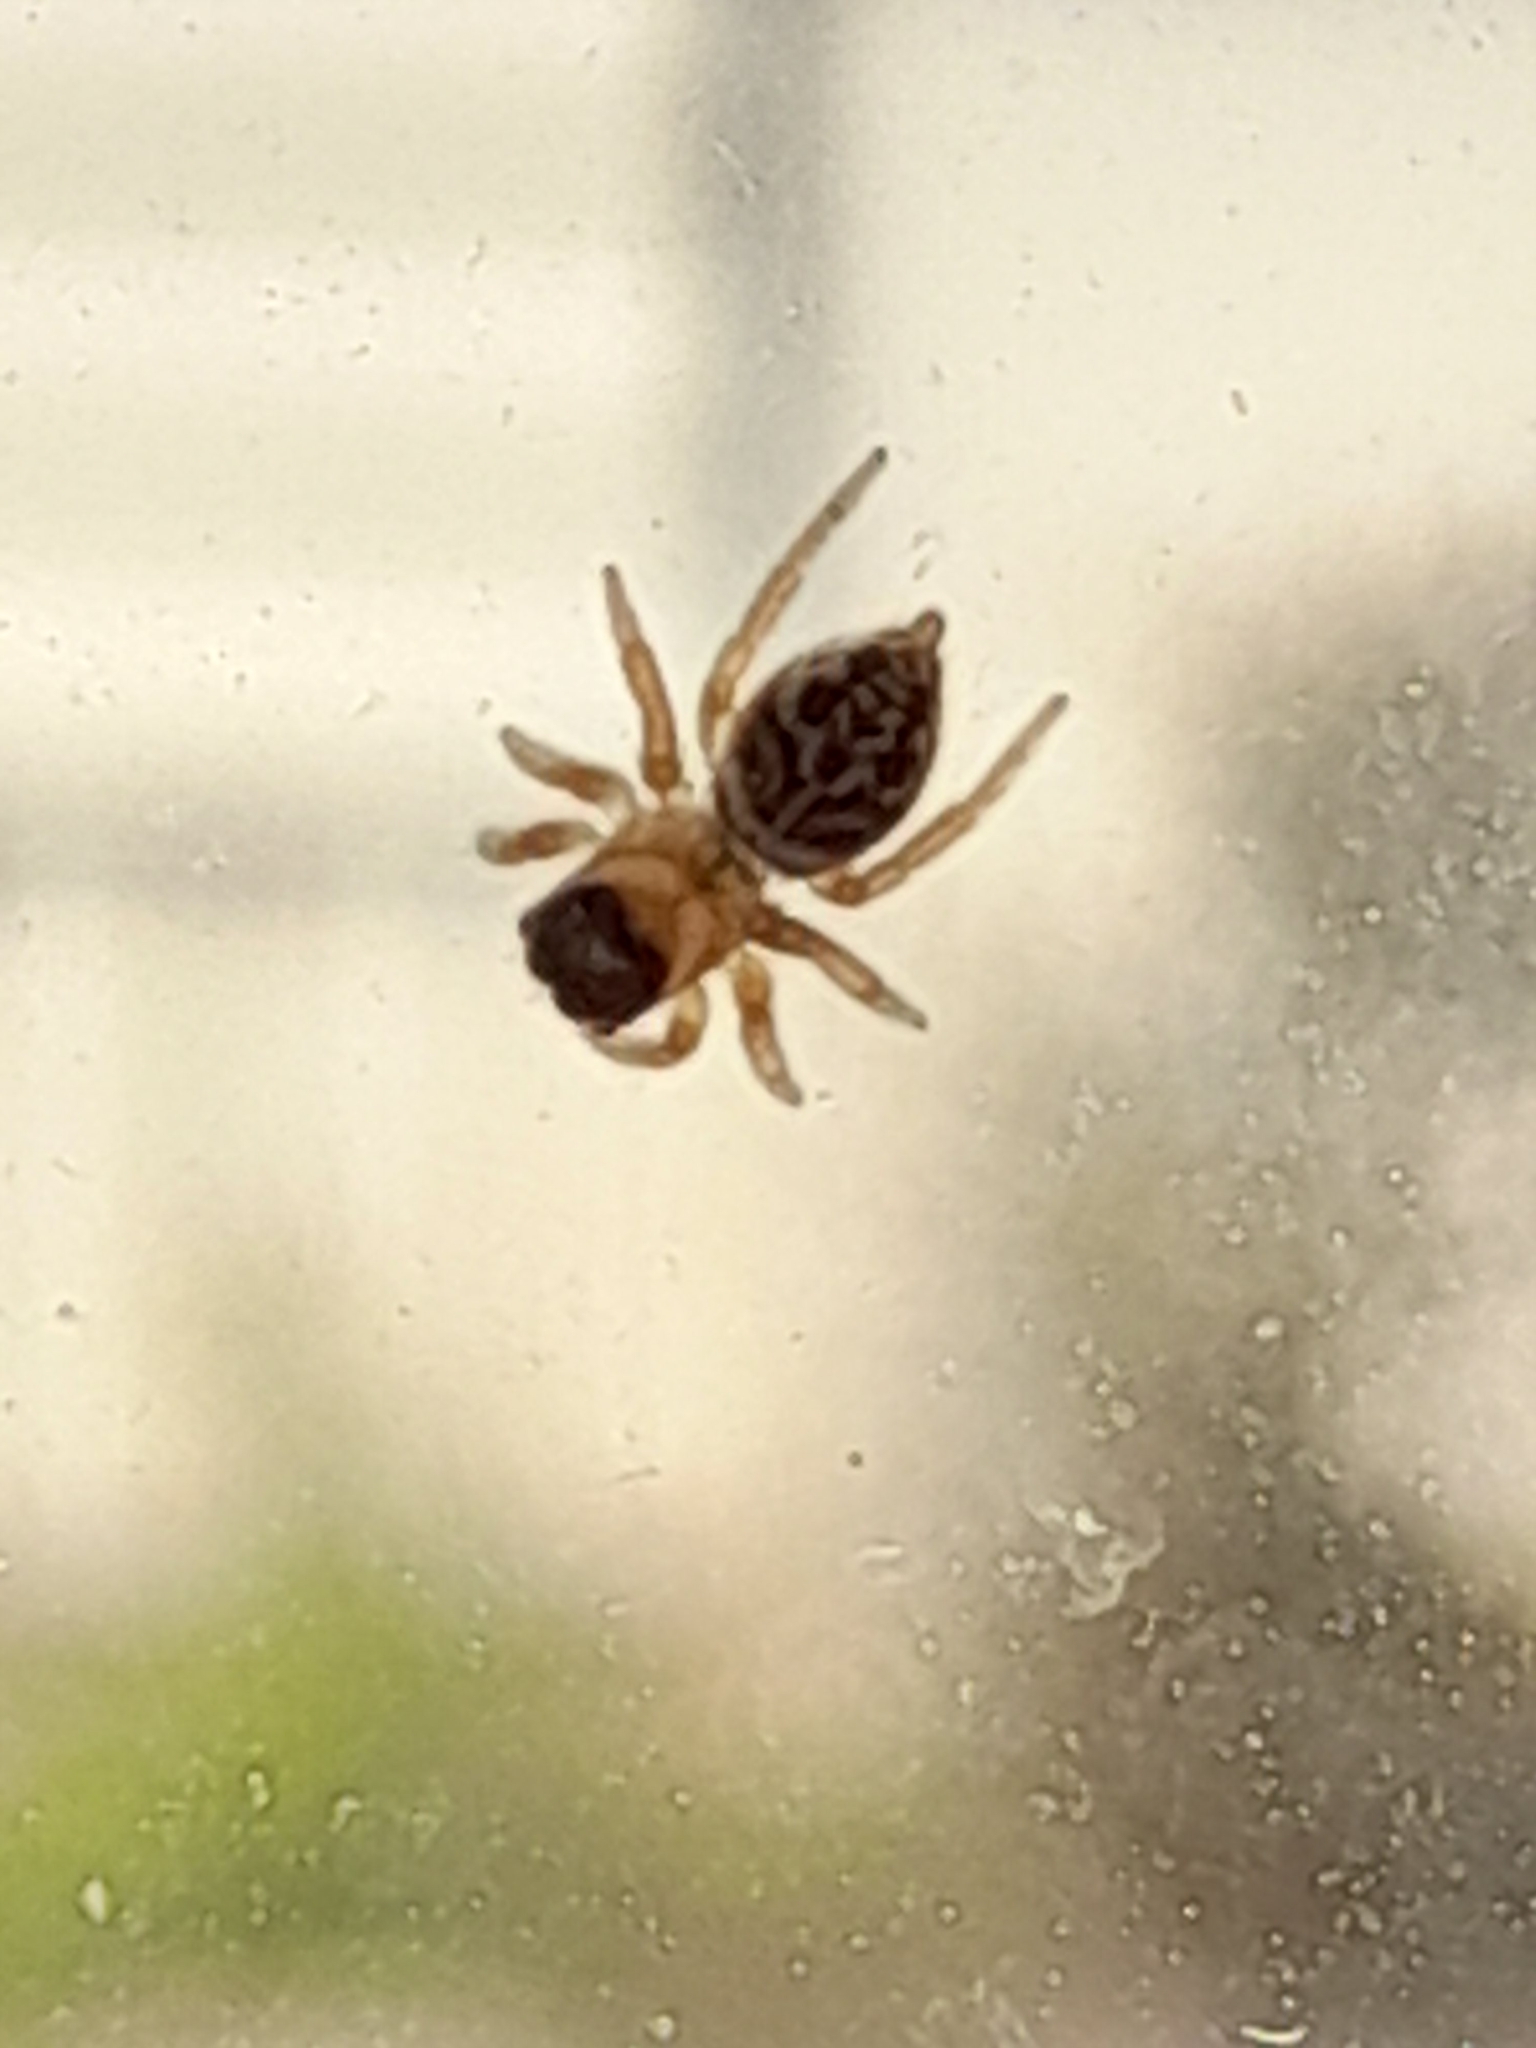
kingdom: Animalia
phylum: Arthropoda
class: Arachnida
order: Araneae
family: Salticidae
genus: Maratus
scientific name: Maratus griseus
